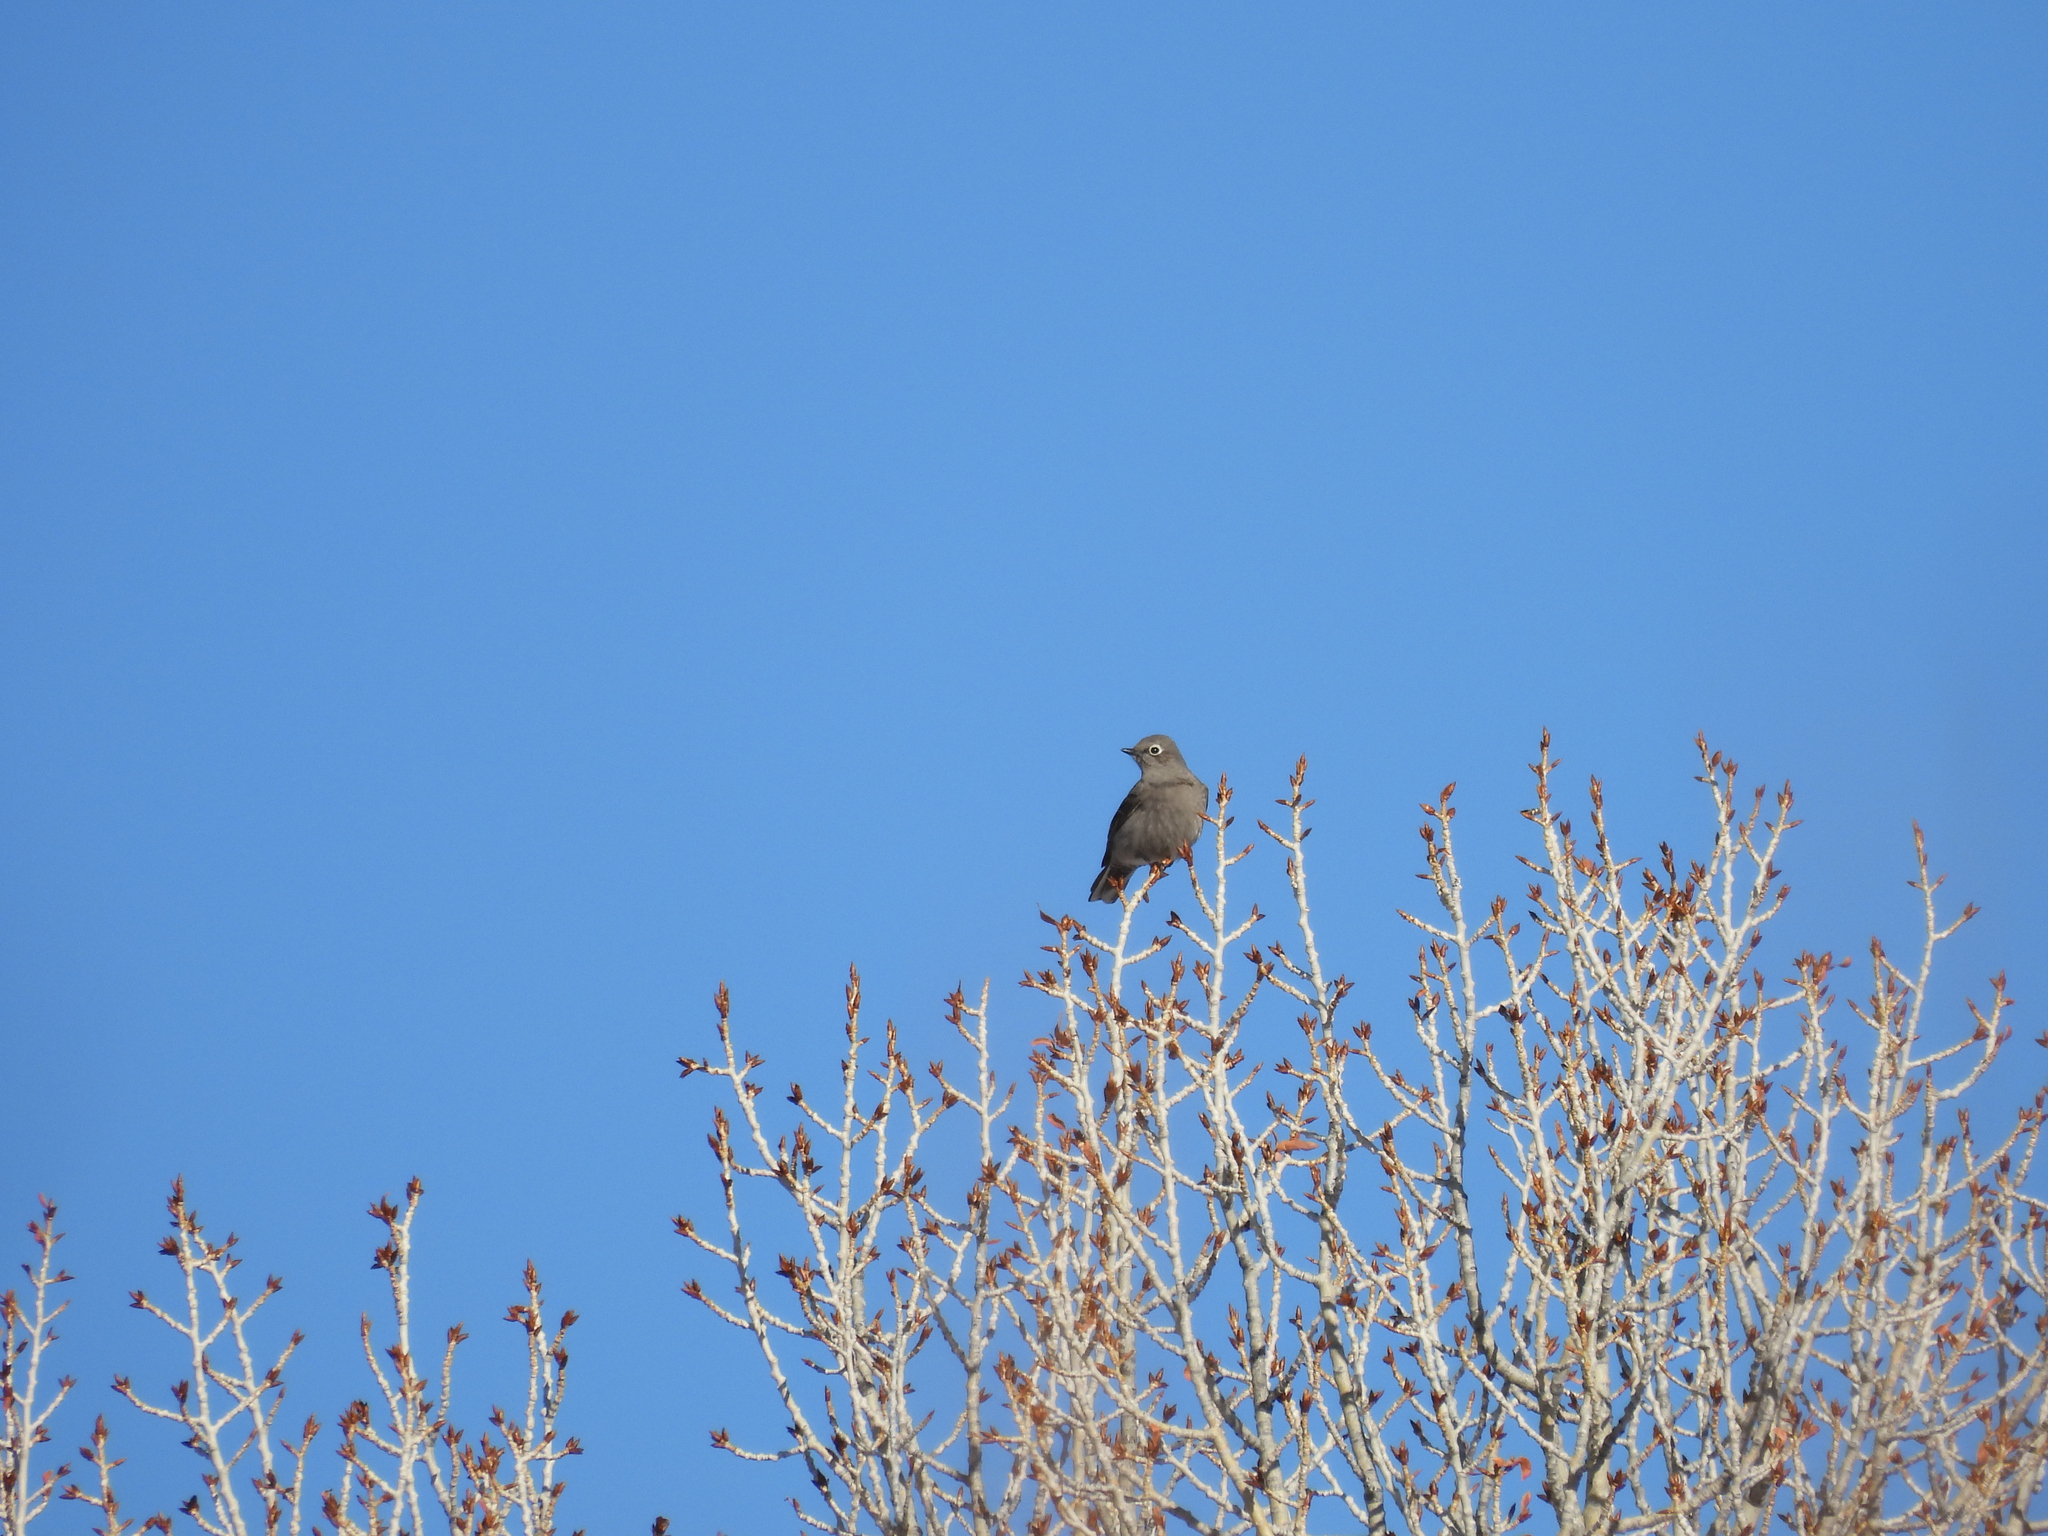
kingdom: Animalia
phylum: Chordata
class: Aves
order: Passeriformes
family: Turdidae
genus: Myadestes
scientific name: Myadestes townsendi
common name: Townsend's solitaire
